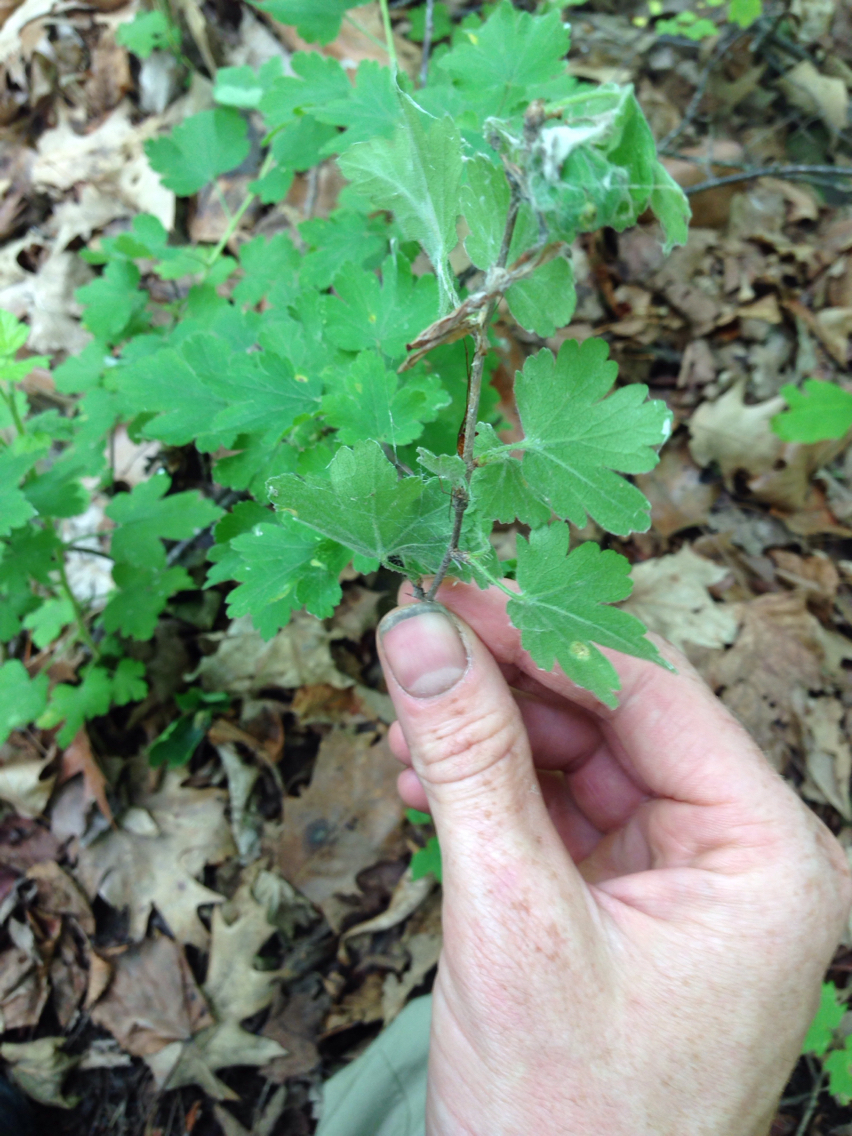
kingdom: Plantae
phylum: Tracheophyta
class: Magnoliopsida
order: Saxifragales
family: Grossulariaceae
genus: Ribes
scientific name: Ribes cynosbati
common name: American gooseberry
